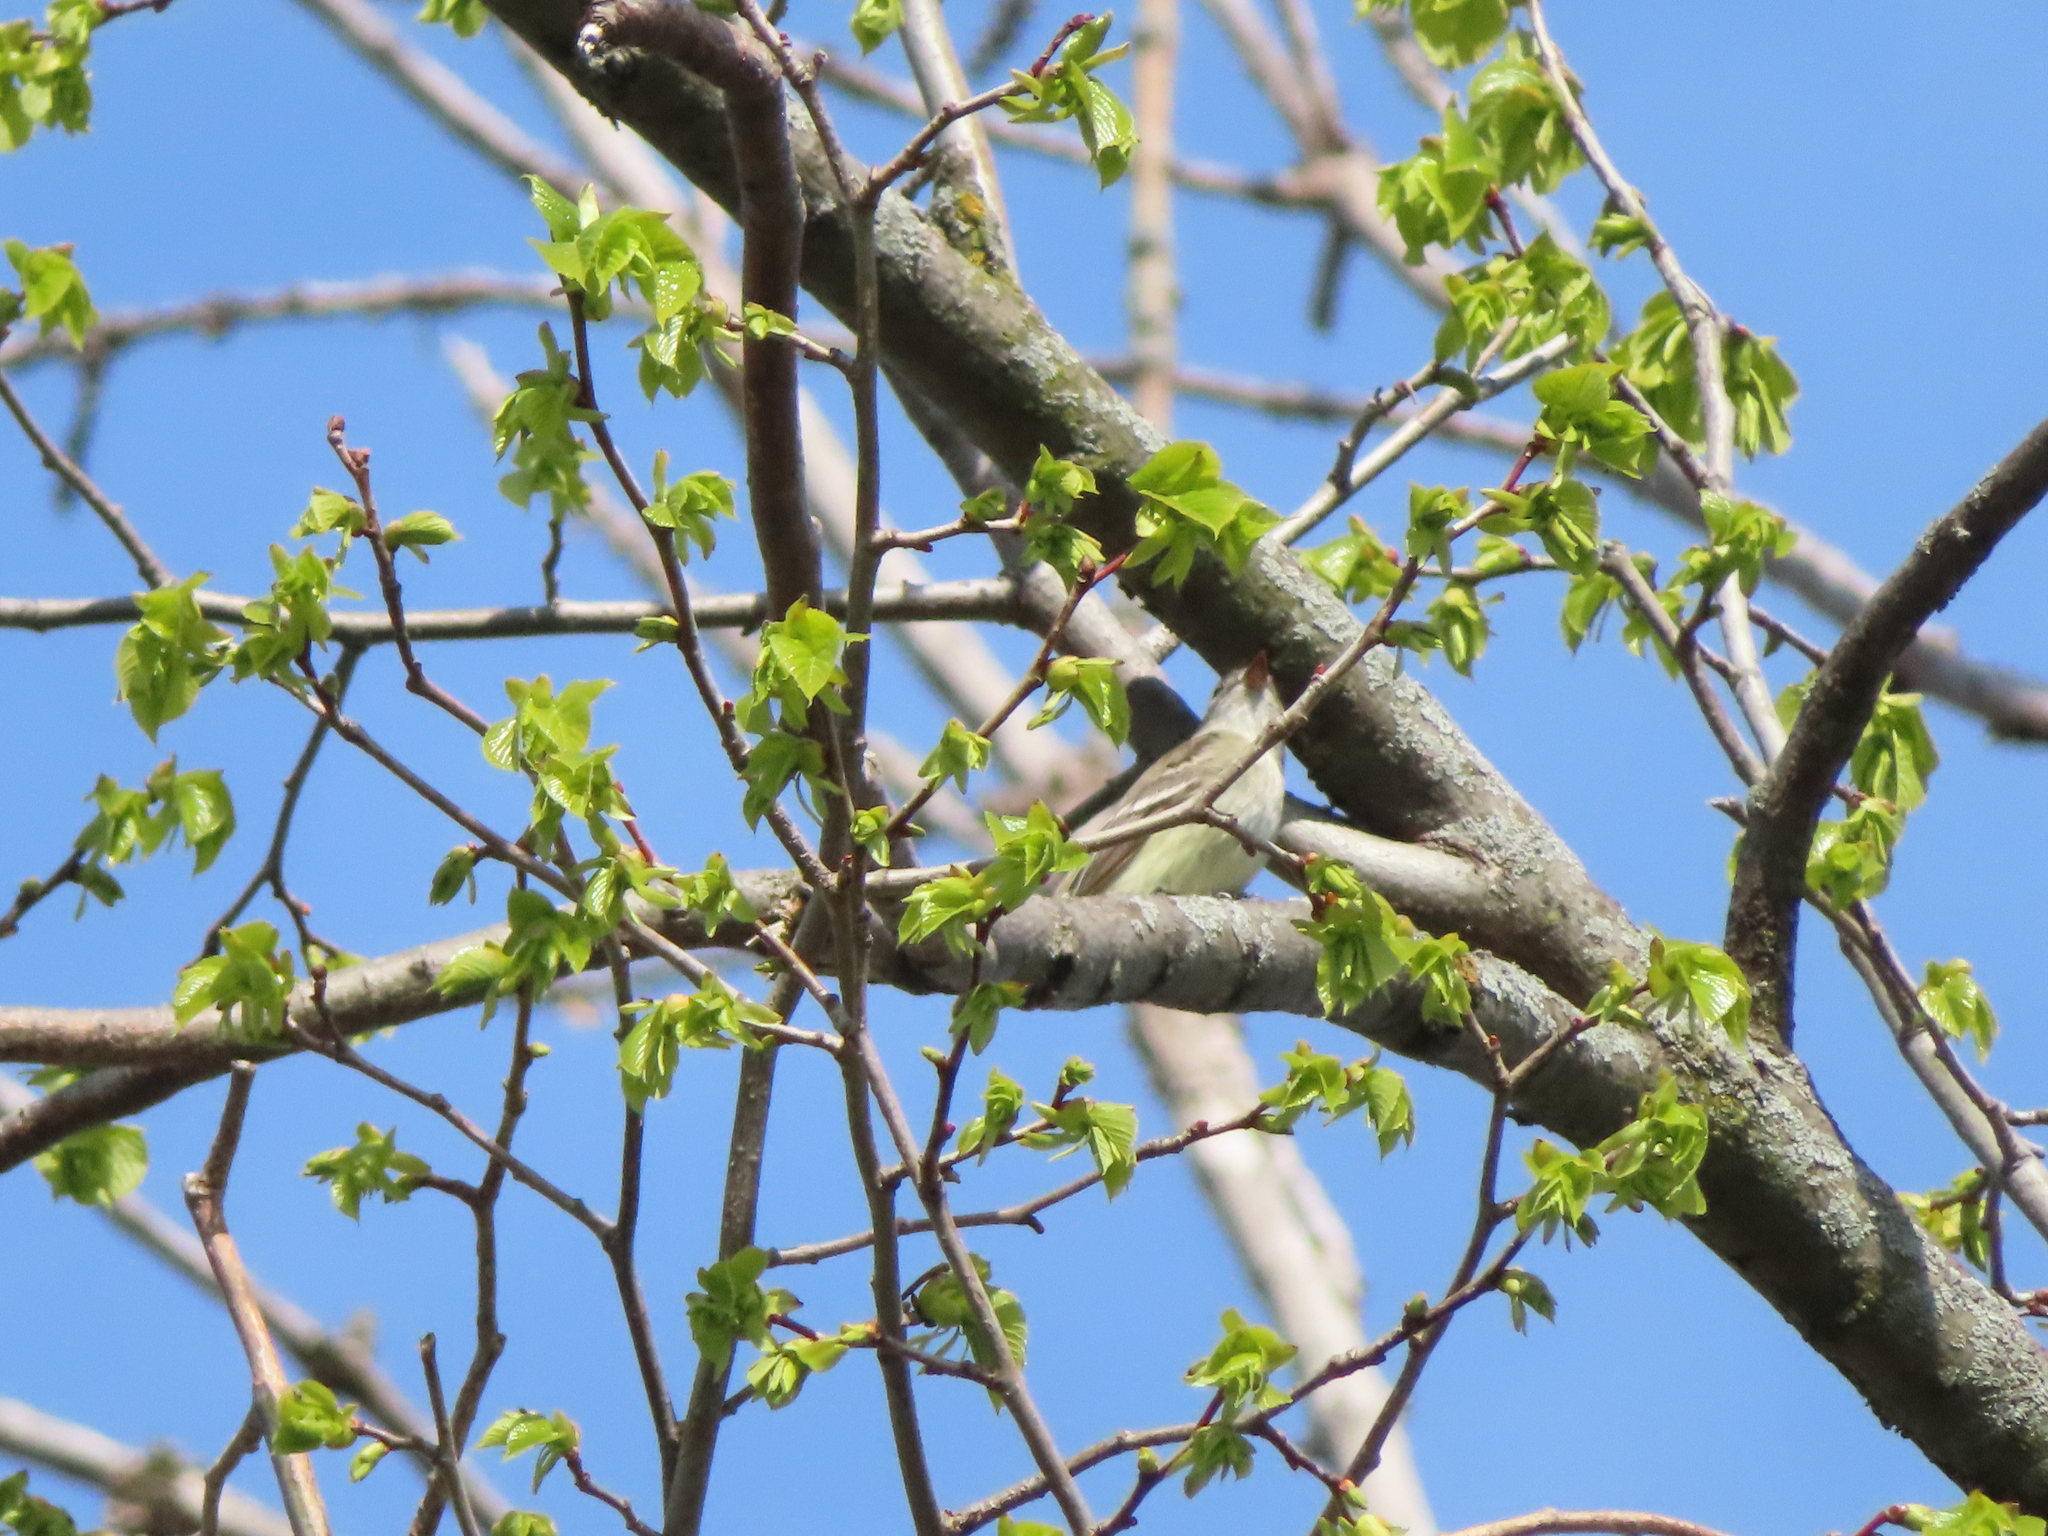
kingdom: Animalia
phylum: Chordata
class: Aves
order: Passeriformes
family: Tyrannidae
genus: Myiarchus
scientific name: Myiarchus crinitus
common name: Great crested flycatcher
